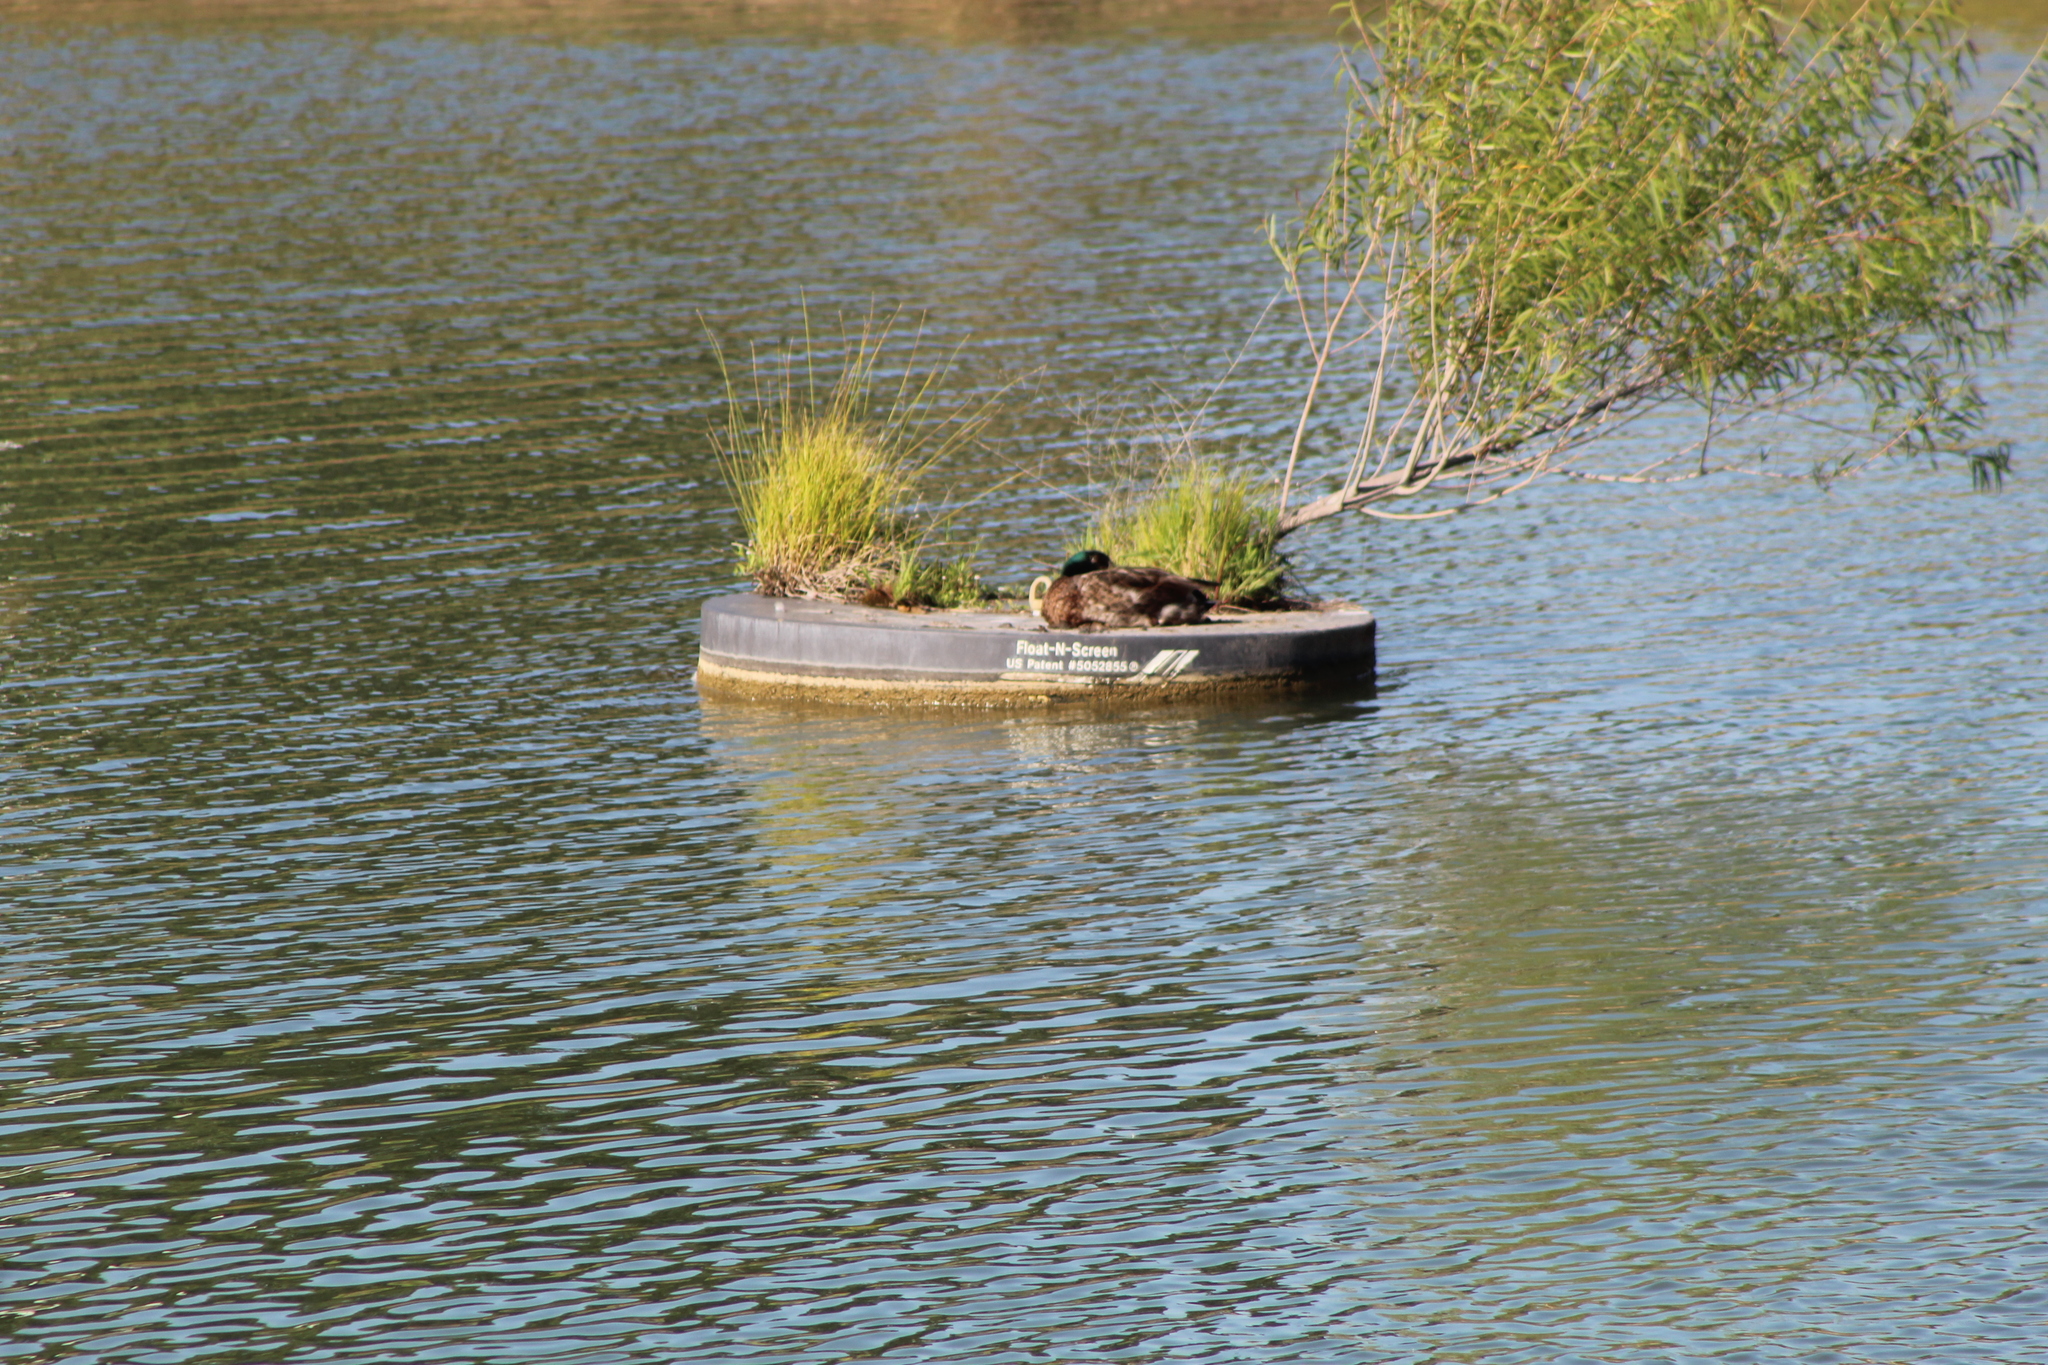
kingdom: Animalia
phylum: Chordata
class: Aves
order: Anseriformes
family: Anatidae
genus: Anas
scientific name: Anas platyrhynchos
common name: Mallard
